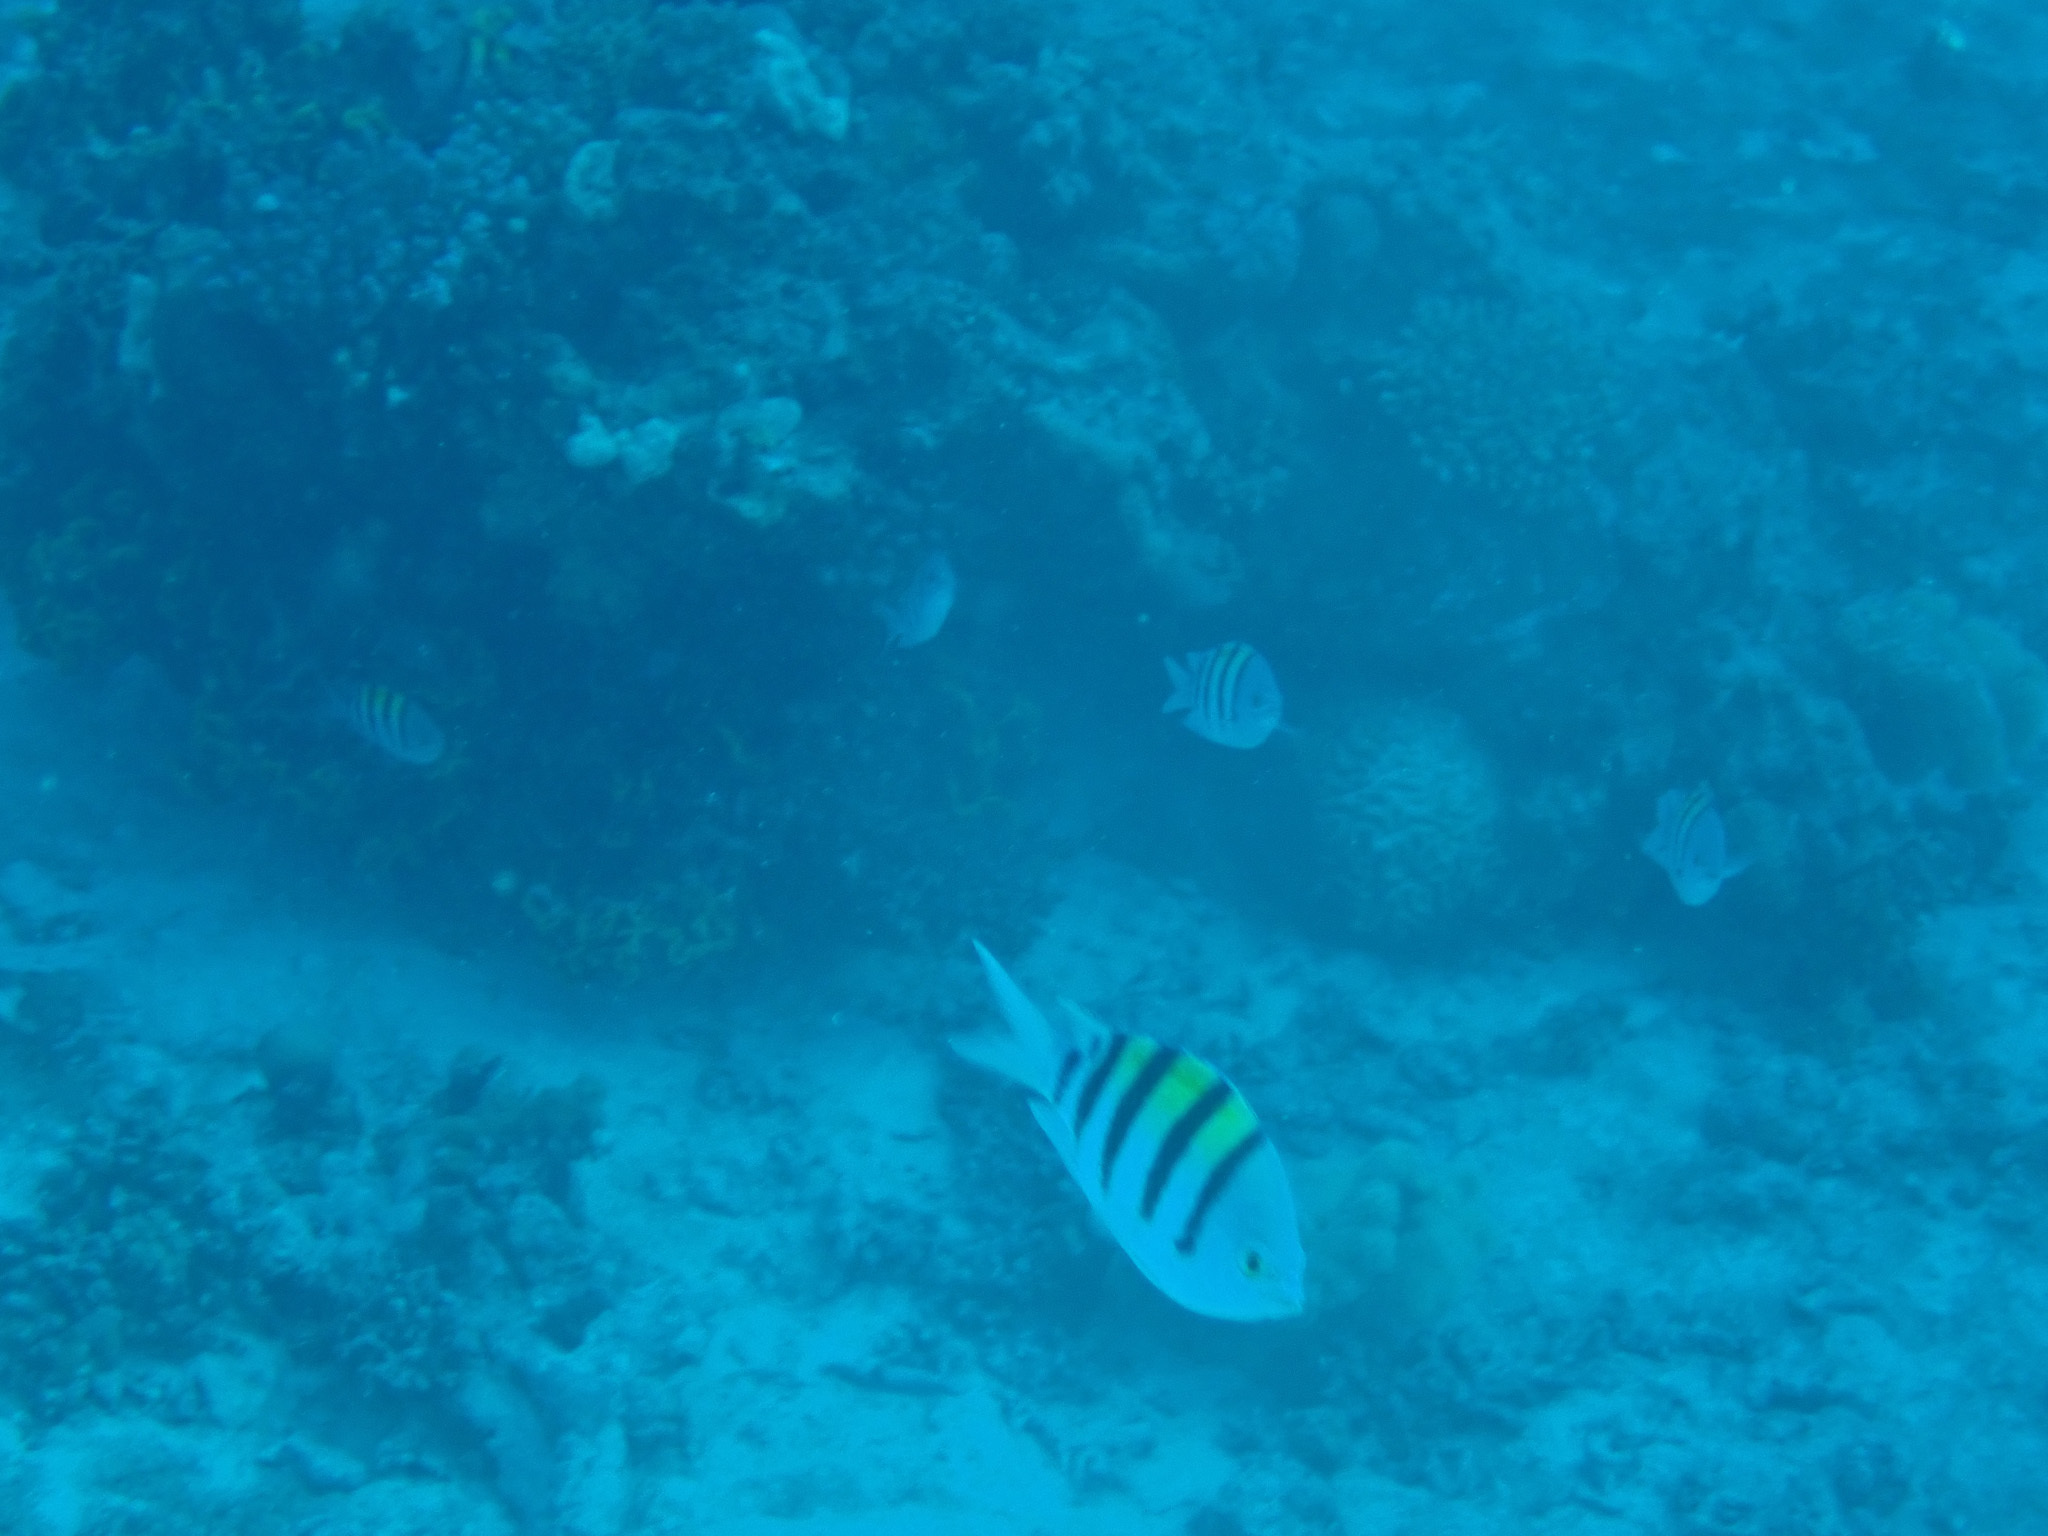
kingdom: Animalia
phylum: Chordata
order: Perciformes
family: Pomacentridae
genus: Abudefduf
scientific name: Abudefduf vaigiensis
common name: Indo-pacific sergeant
